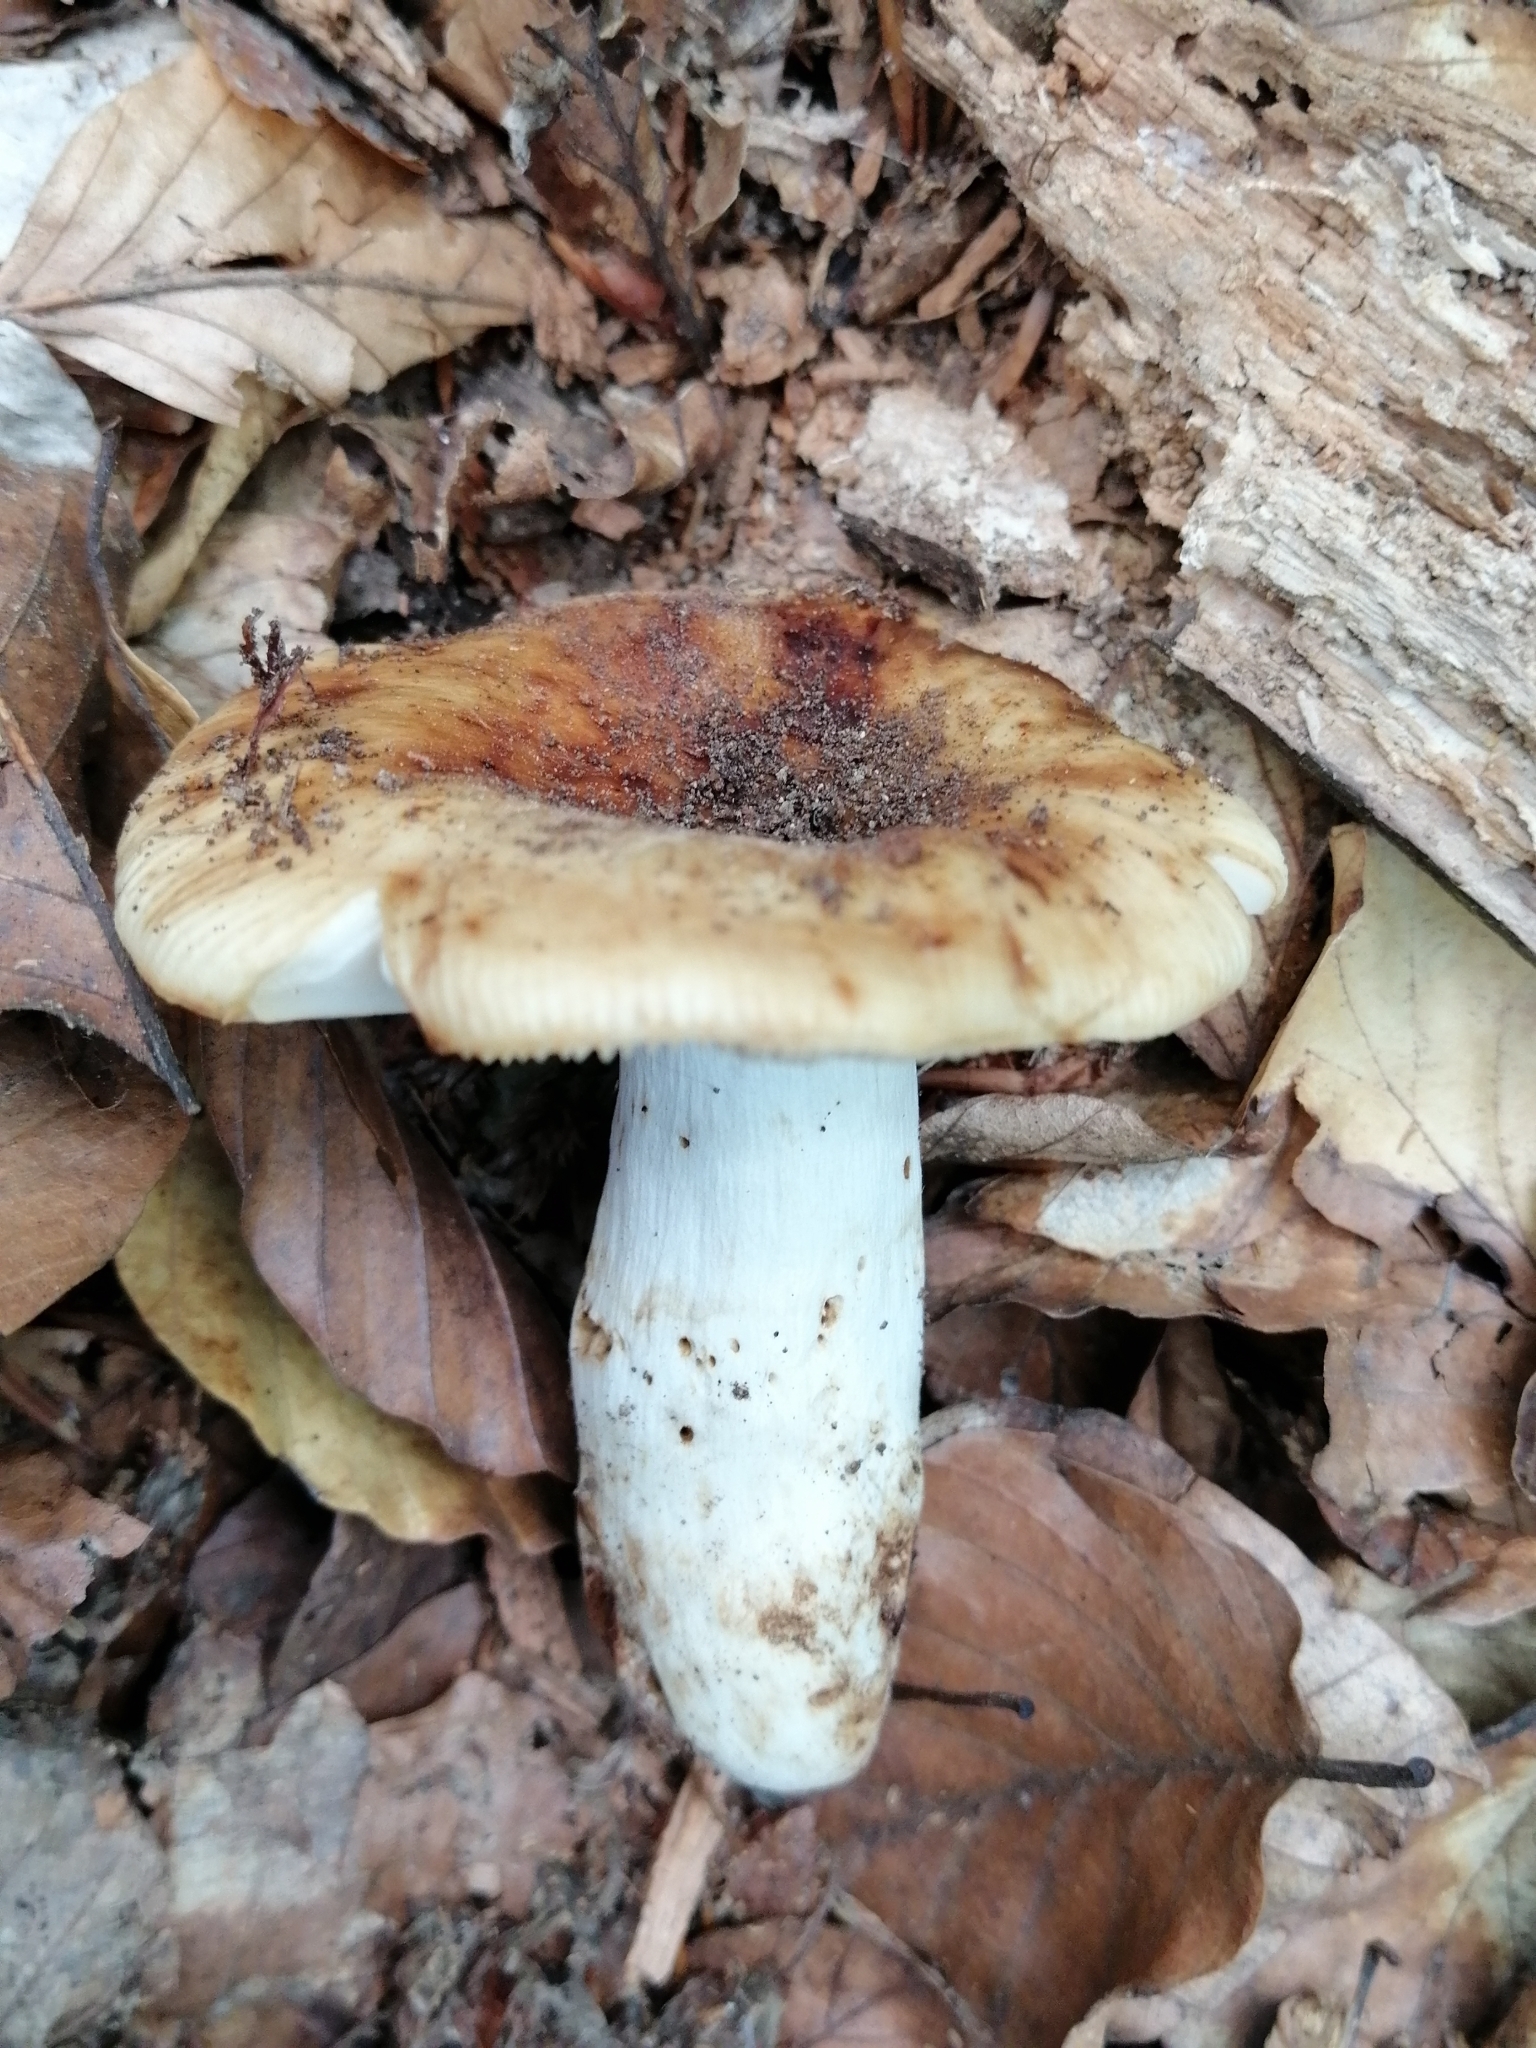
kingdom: Fungi
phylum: Basidiomycota
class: Agaricomycetes
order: Russulales
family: Russulaceae
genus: Russula
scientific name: Russula grata
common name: Bitter almond brittlegill
